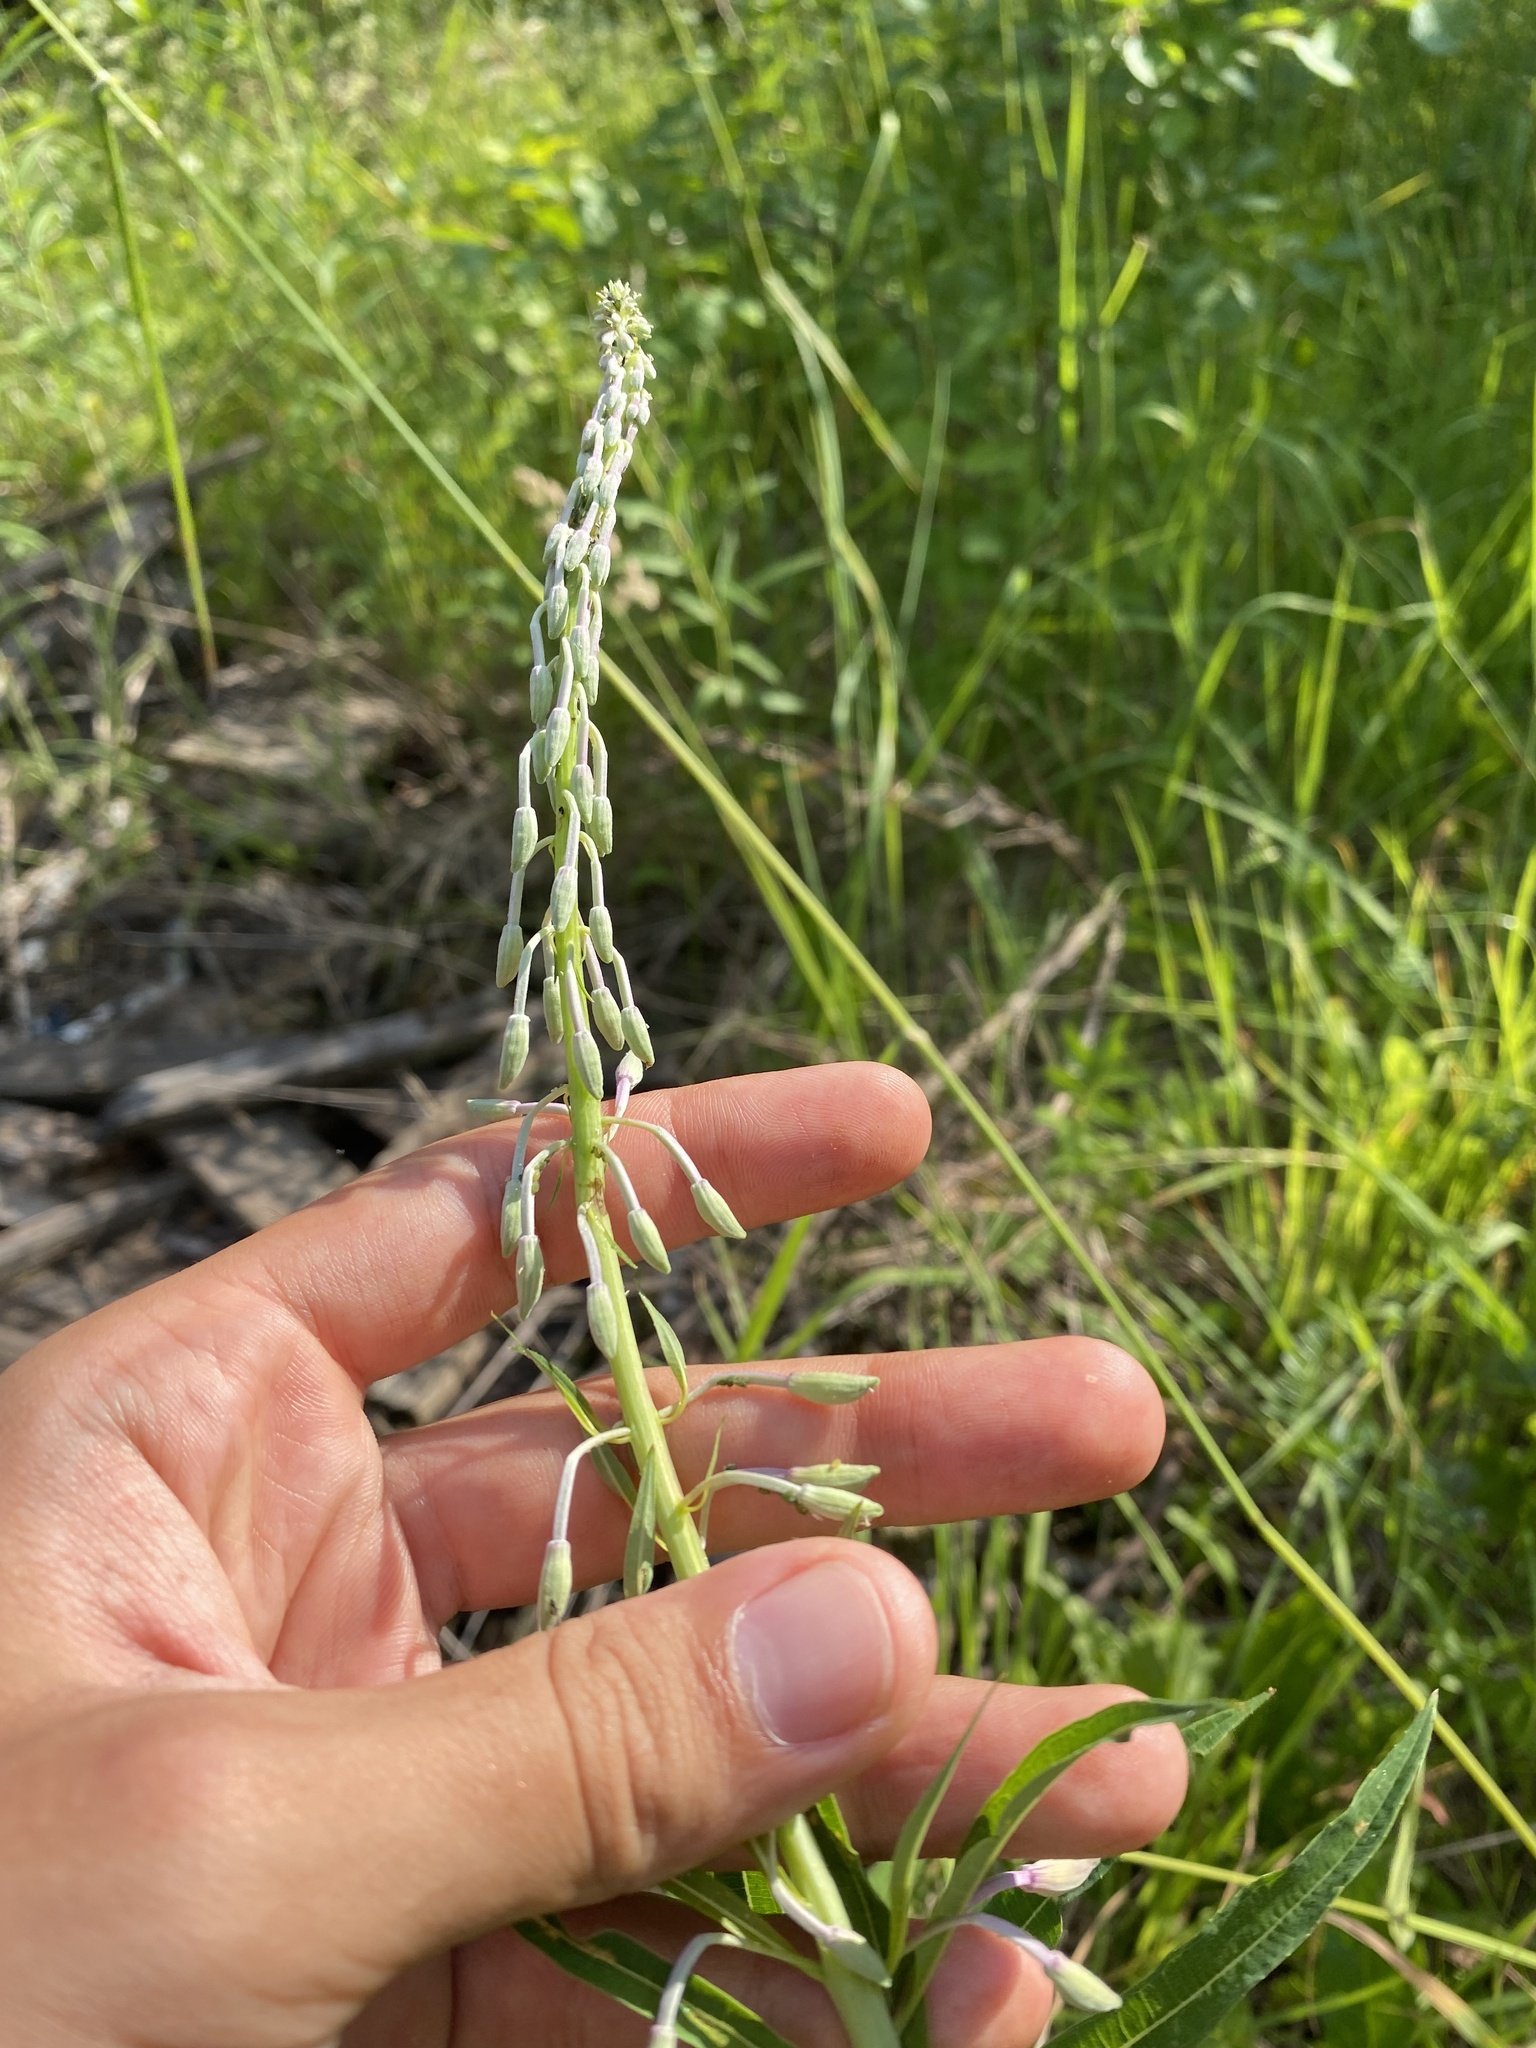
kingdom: Plantae
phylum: Tracheophyta
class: Magnoliopsida
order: Myrtales
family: Onagraceae
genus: Chamaenerion
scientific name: Chamaenerion angustifolium
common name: Fireweed
